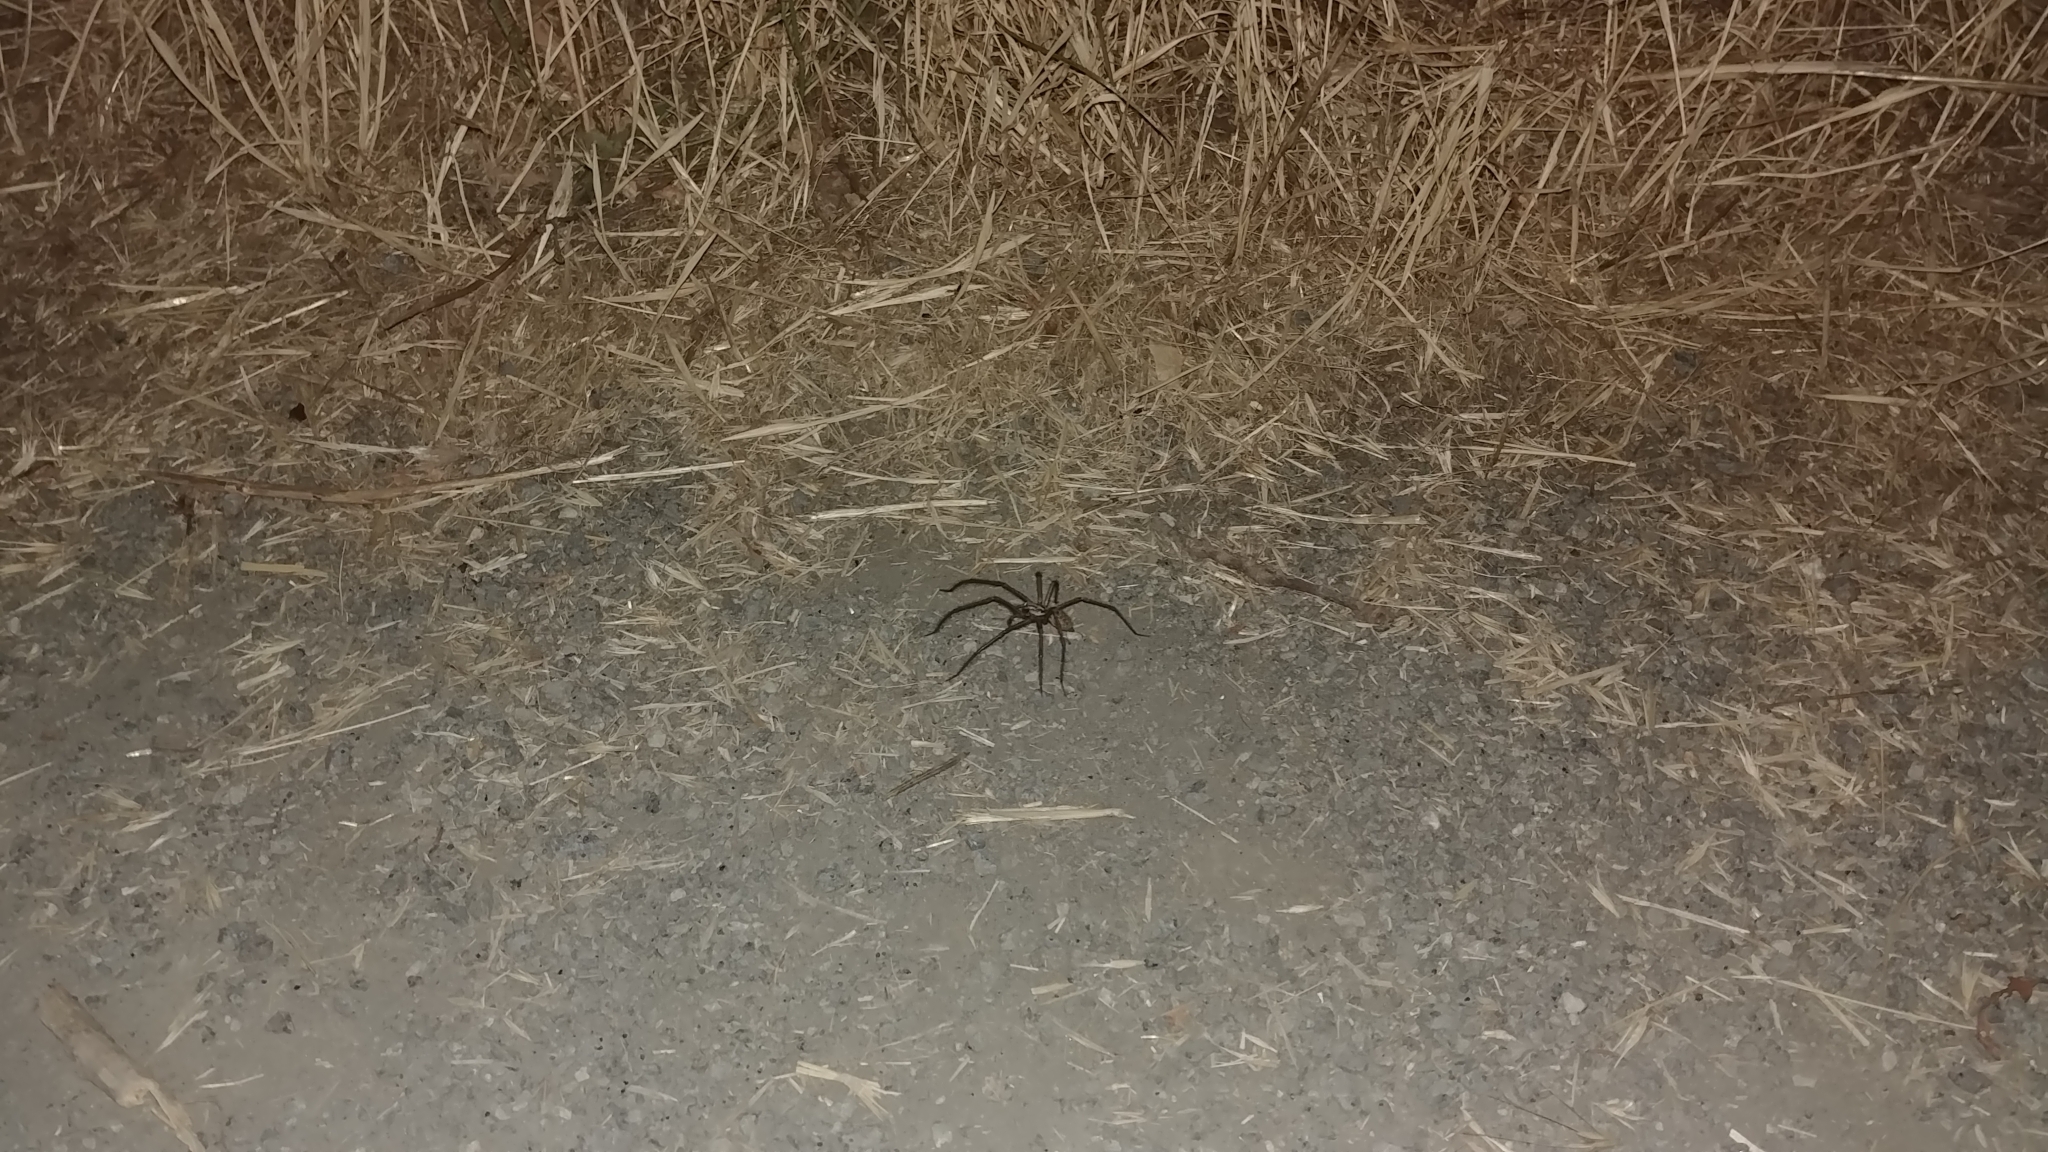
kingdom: Animalia
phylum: Arthropoda
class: Arachnida
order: Araneae
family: Agelenidae
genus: Eratigena
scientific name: Eratigena duellica
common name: Giant house spider
